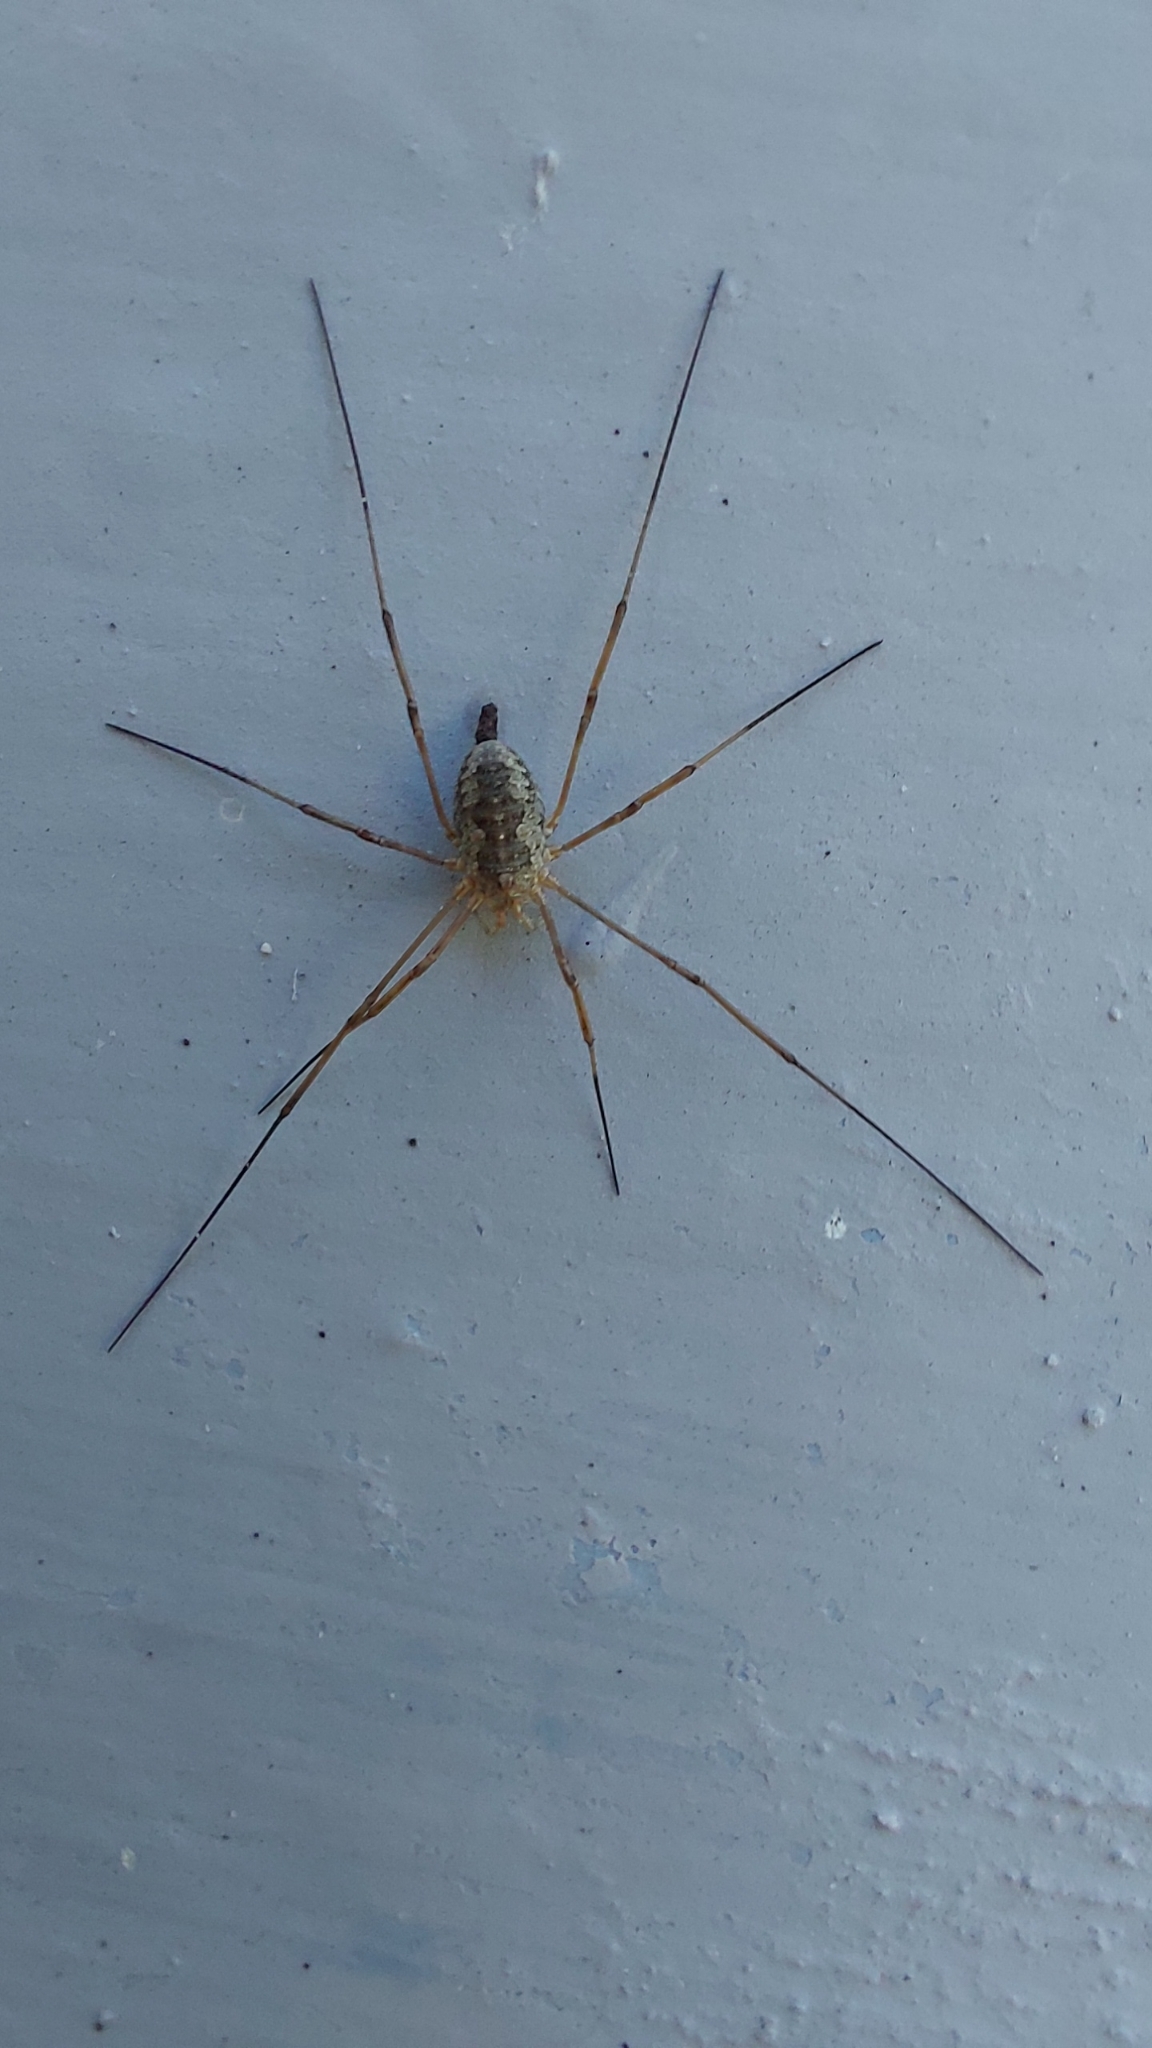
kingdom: Animalia
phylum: Arthropoda
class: Arachnida
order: Opiliones
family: Phalangiidae
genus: Phalangium
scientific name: Phalangium opilio
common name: Daddy longleg
